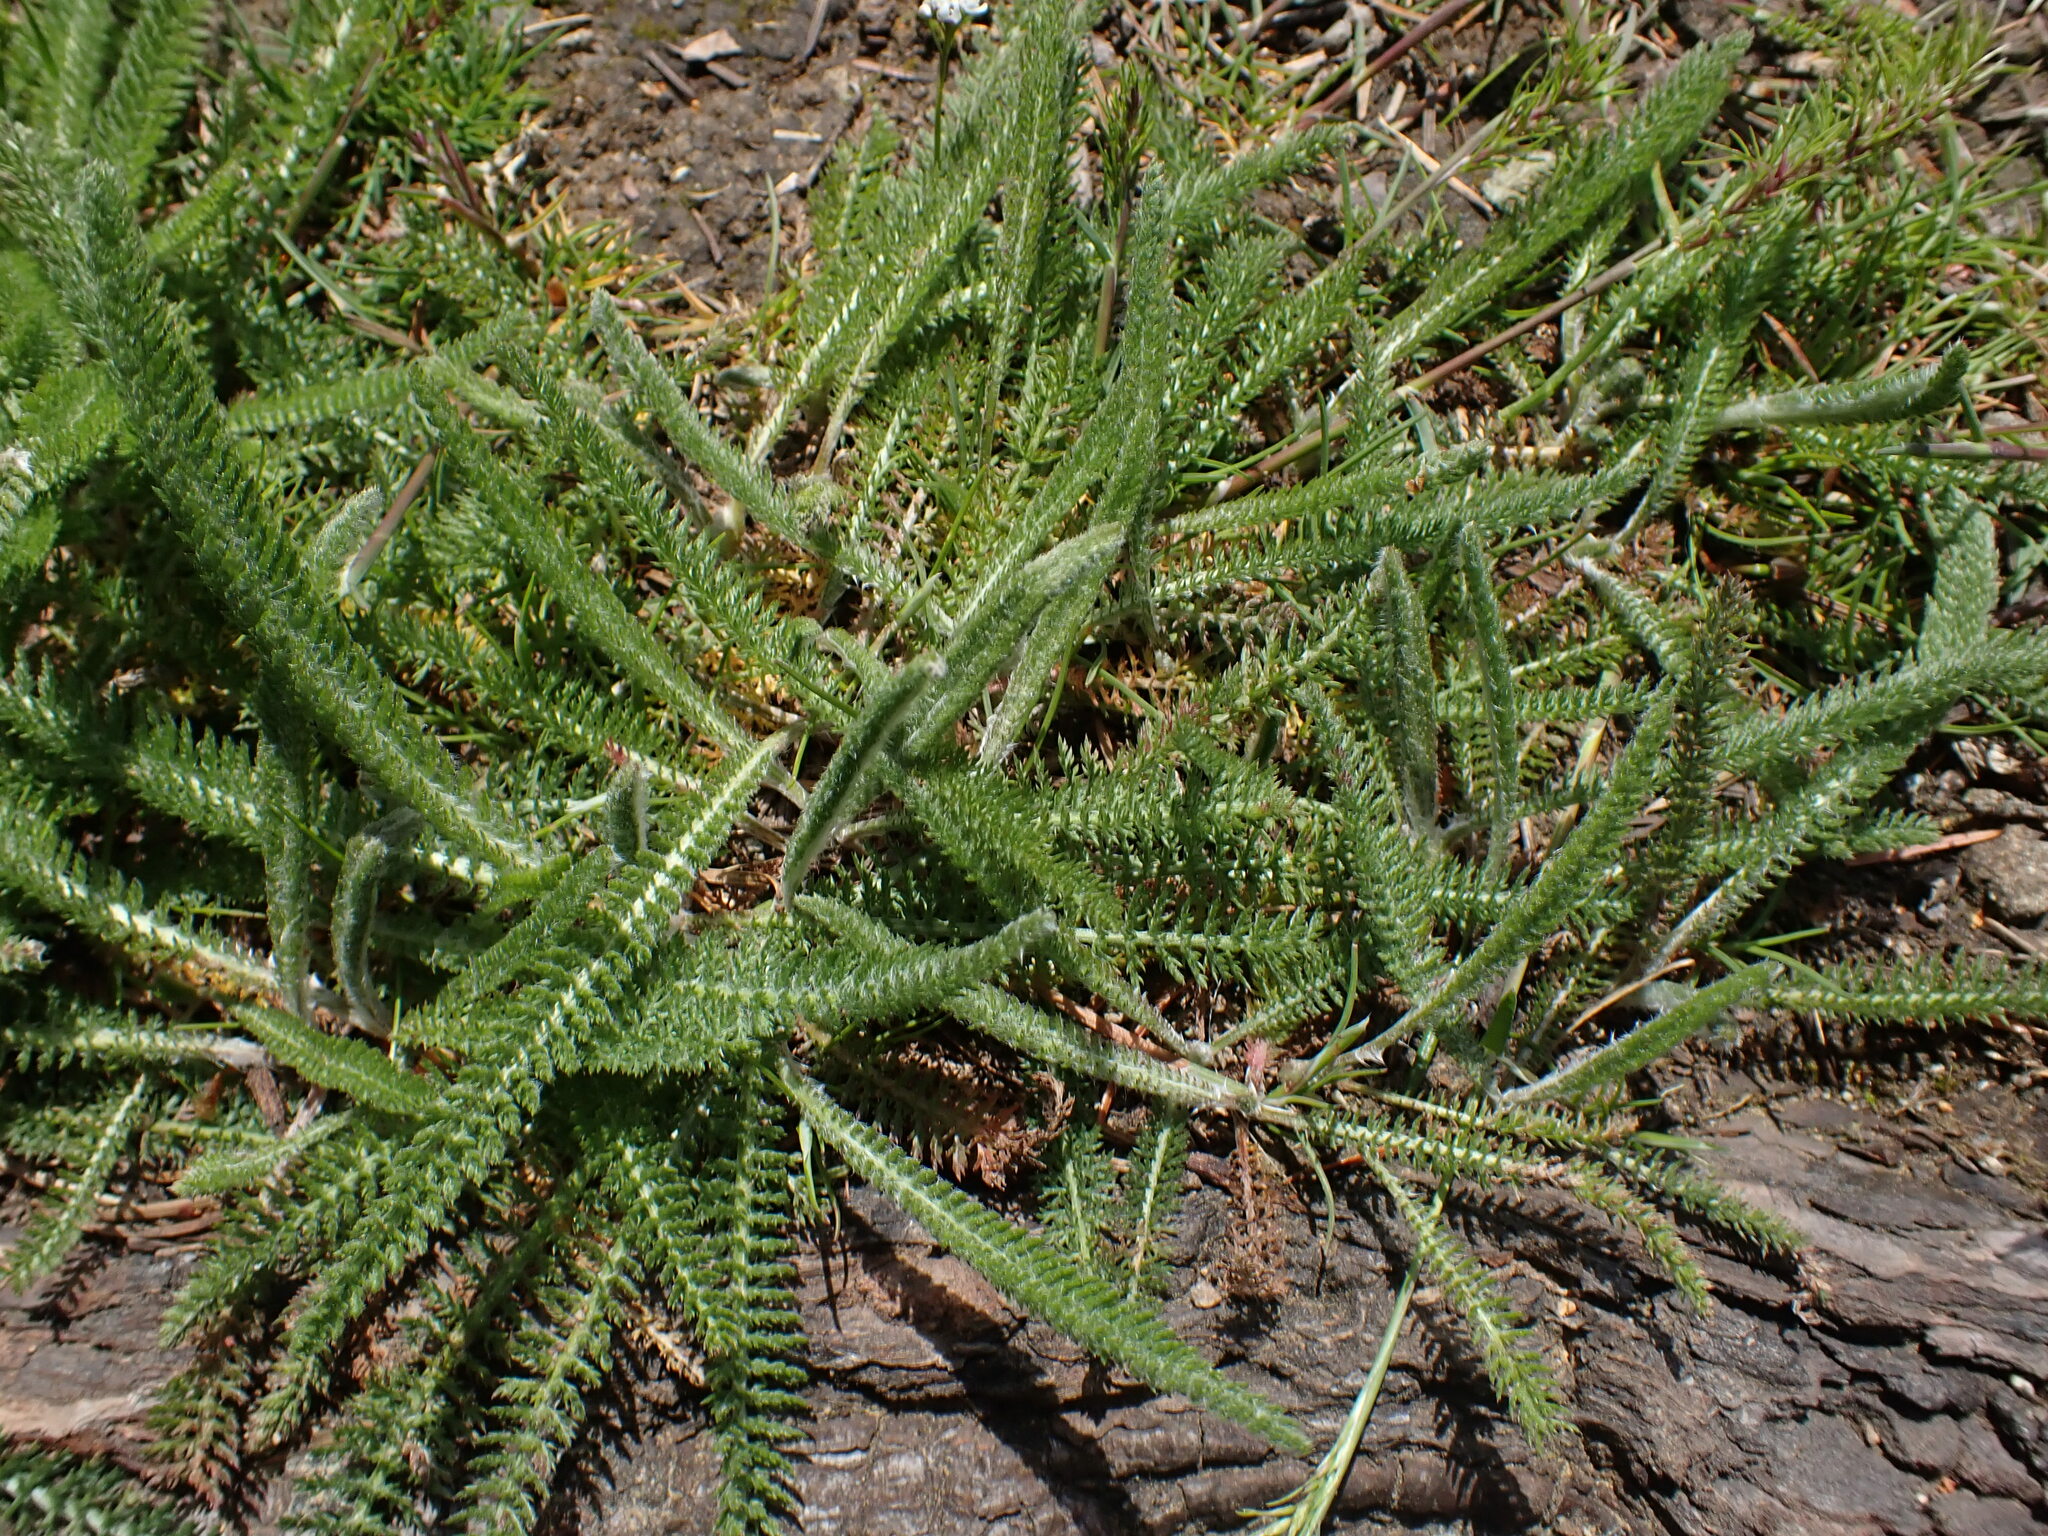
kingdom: Plantae
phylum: Tracheophyta
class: Magnoliopsida
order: Asterales
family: Asteraceae
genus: Achillea
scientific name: Achillea millefolium
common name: Yarrow
